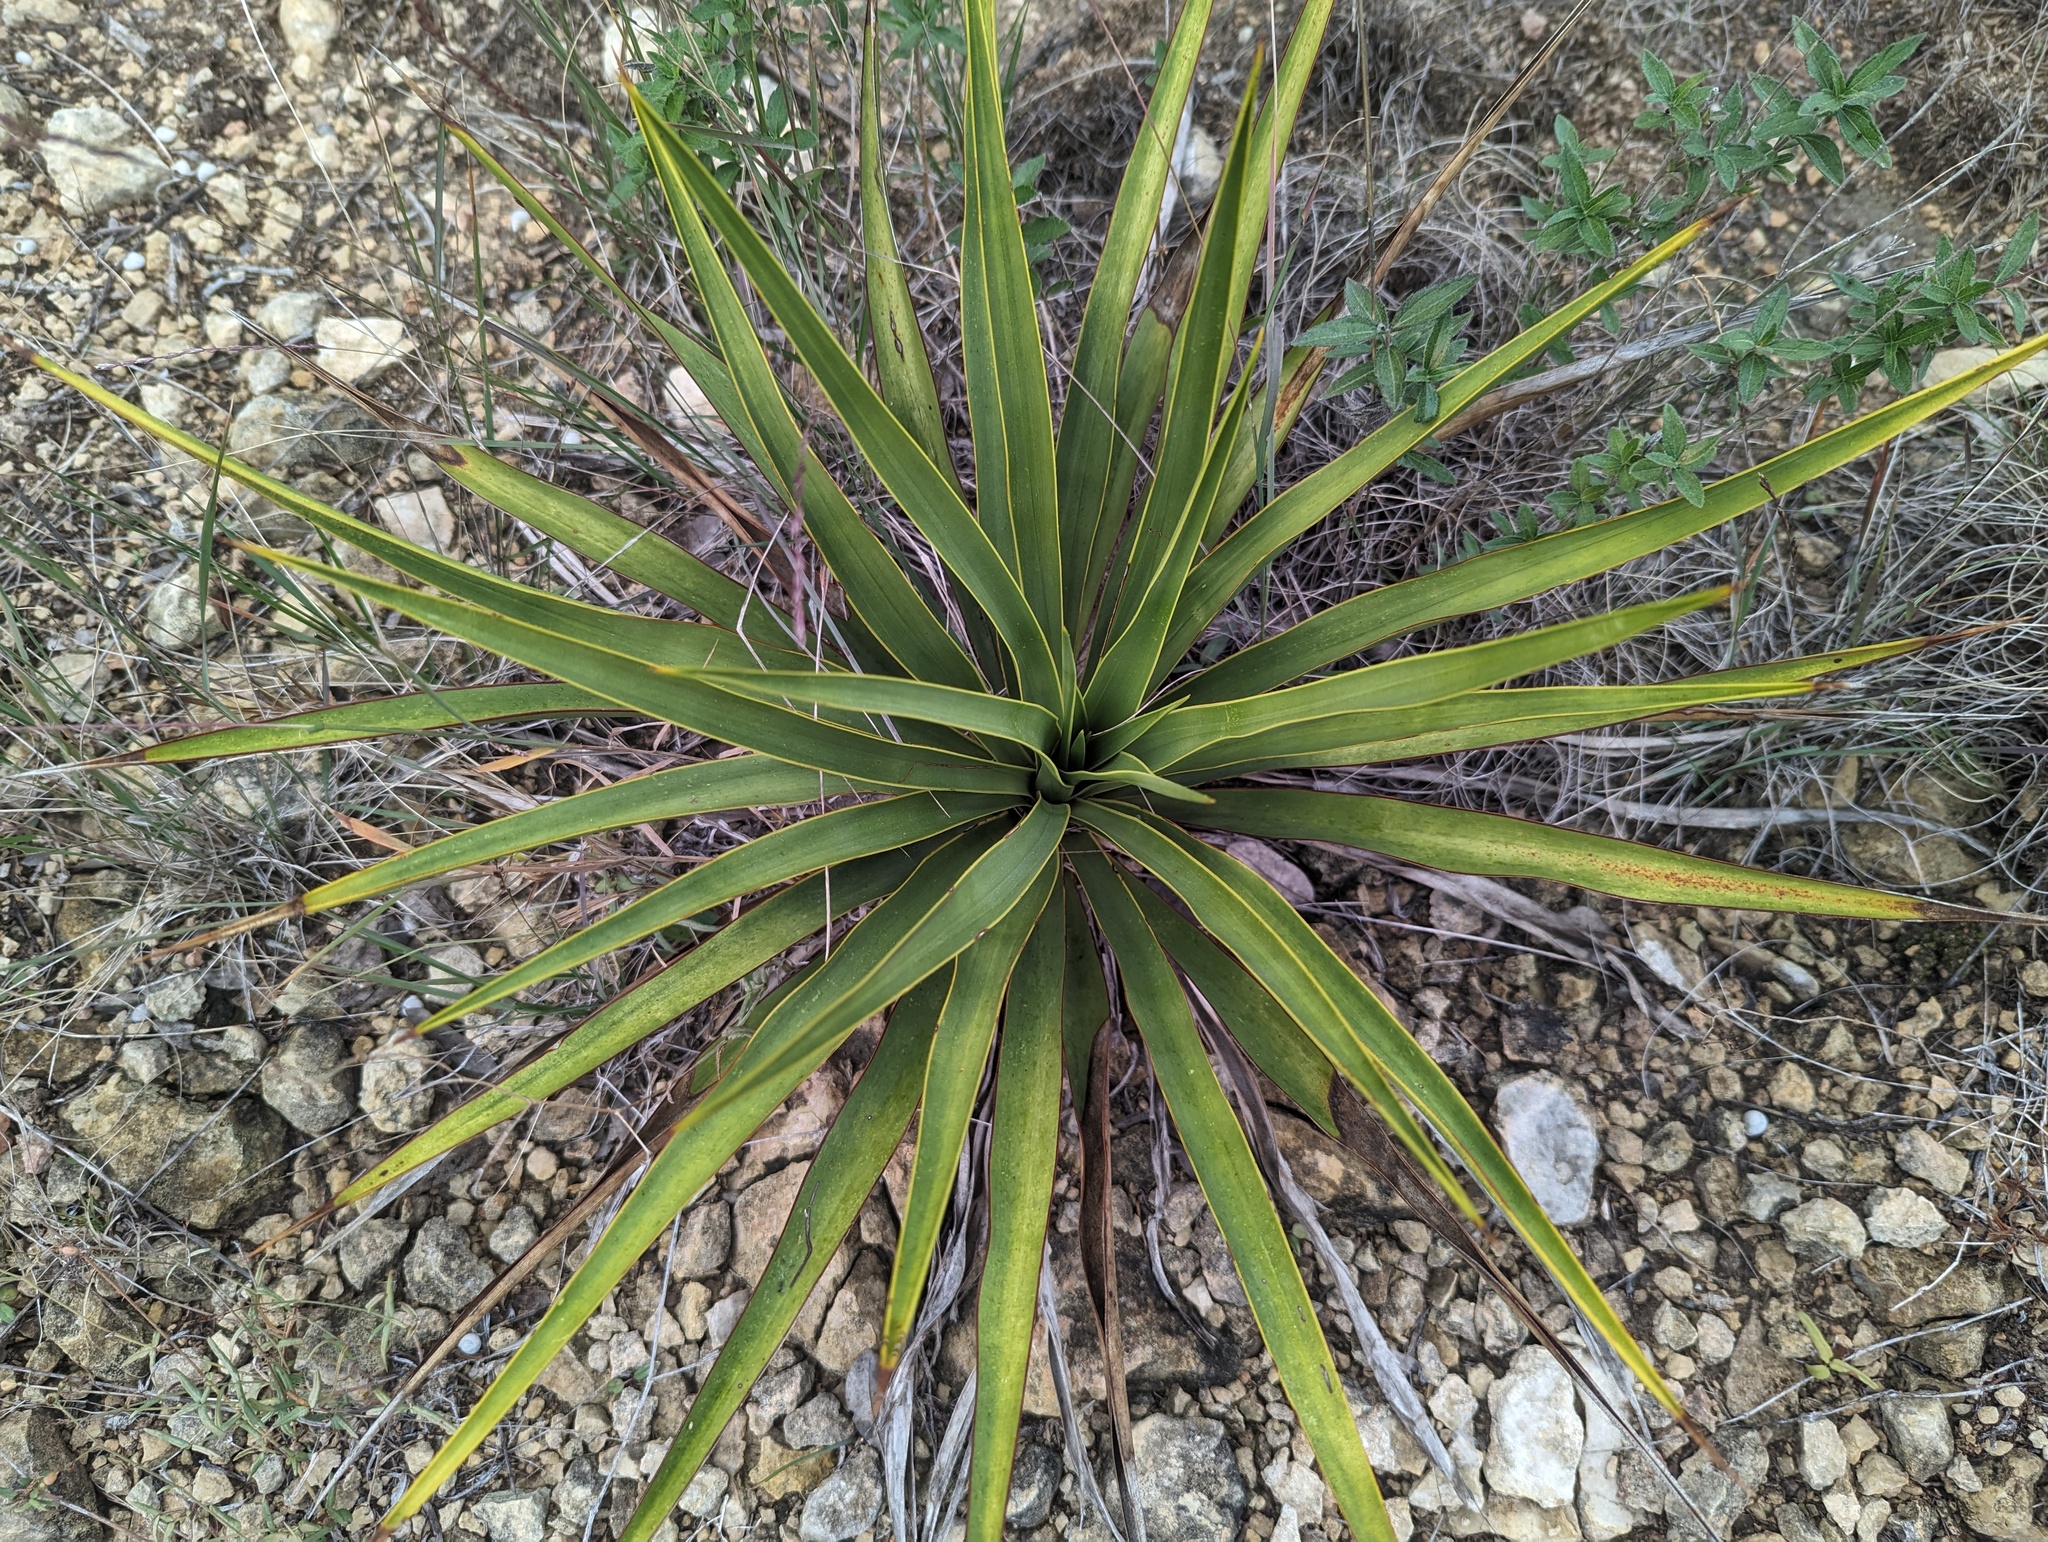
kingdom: Plantae
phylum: Tracheophyta
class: Liliopsida
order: Asparagales
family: Asparagaceae
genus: Yucca
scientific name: Yucca rupicola
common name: Twisted-leaf spanish-dagger
